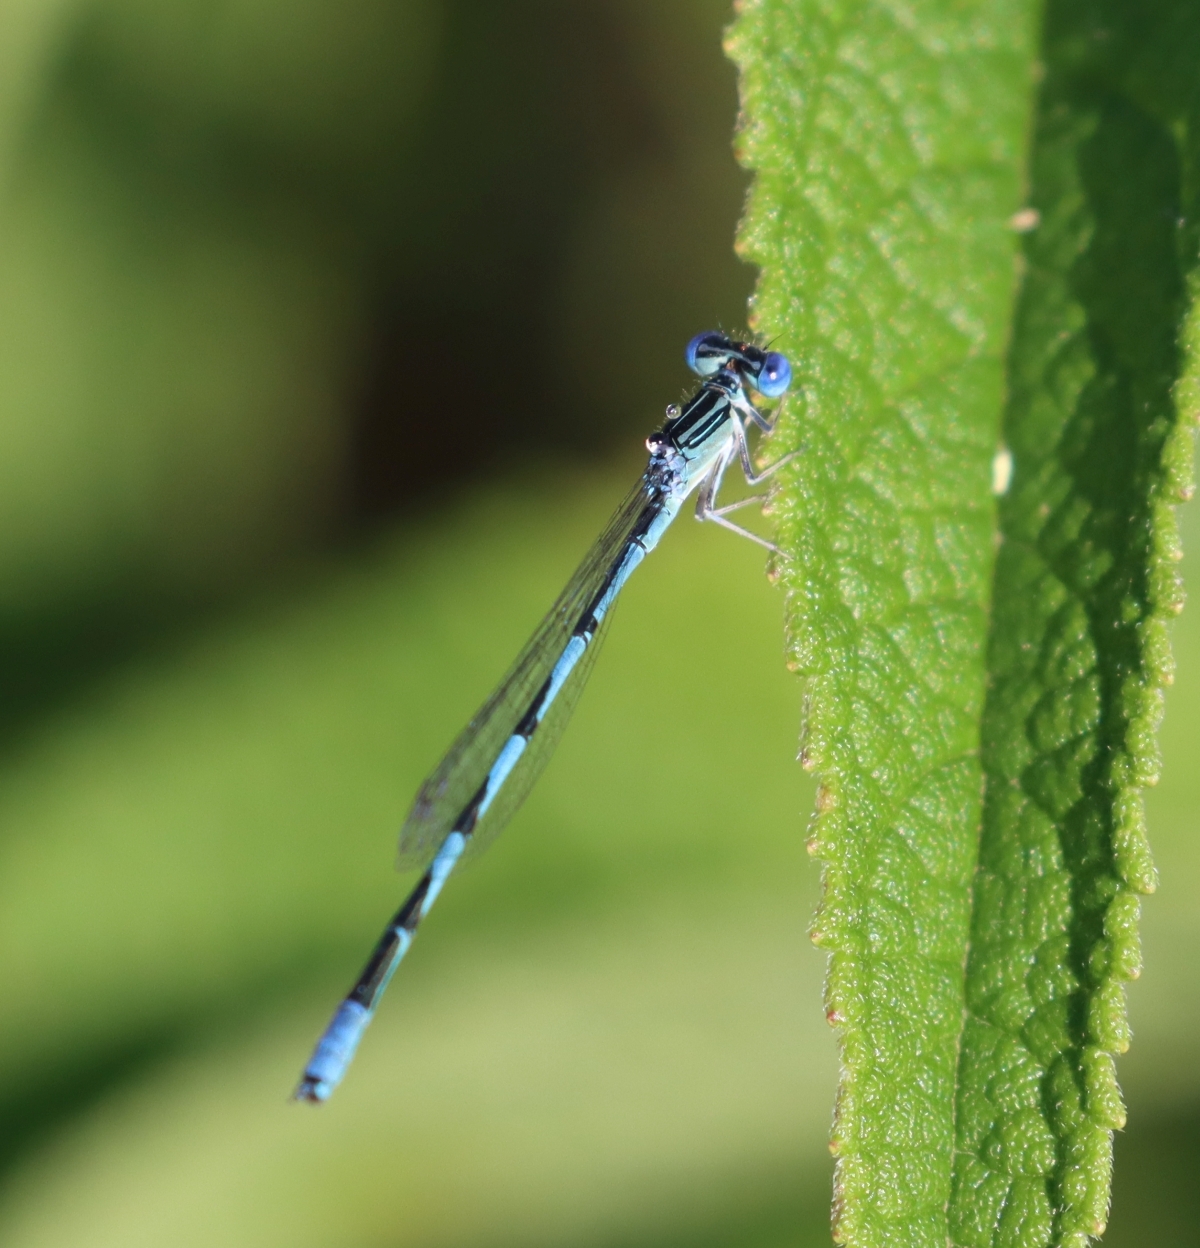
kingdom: Animalia
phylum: Arthropoda
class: Insecta
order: Odonata
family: Coenagrionidae
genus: Enallagma
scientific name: Enallagma basidens
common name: Double-striped bluet
